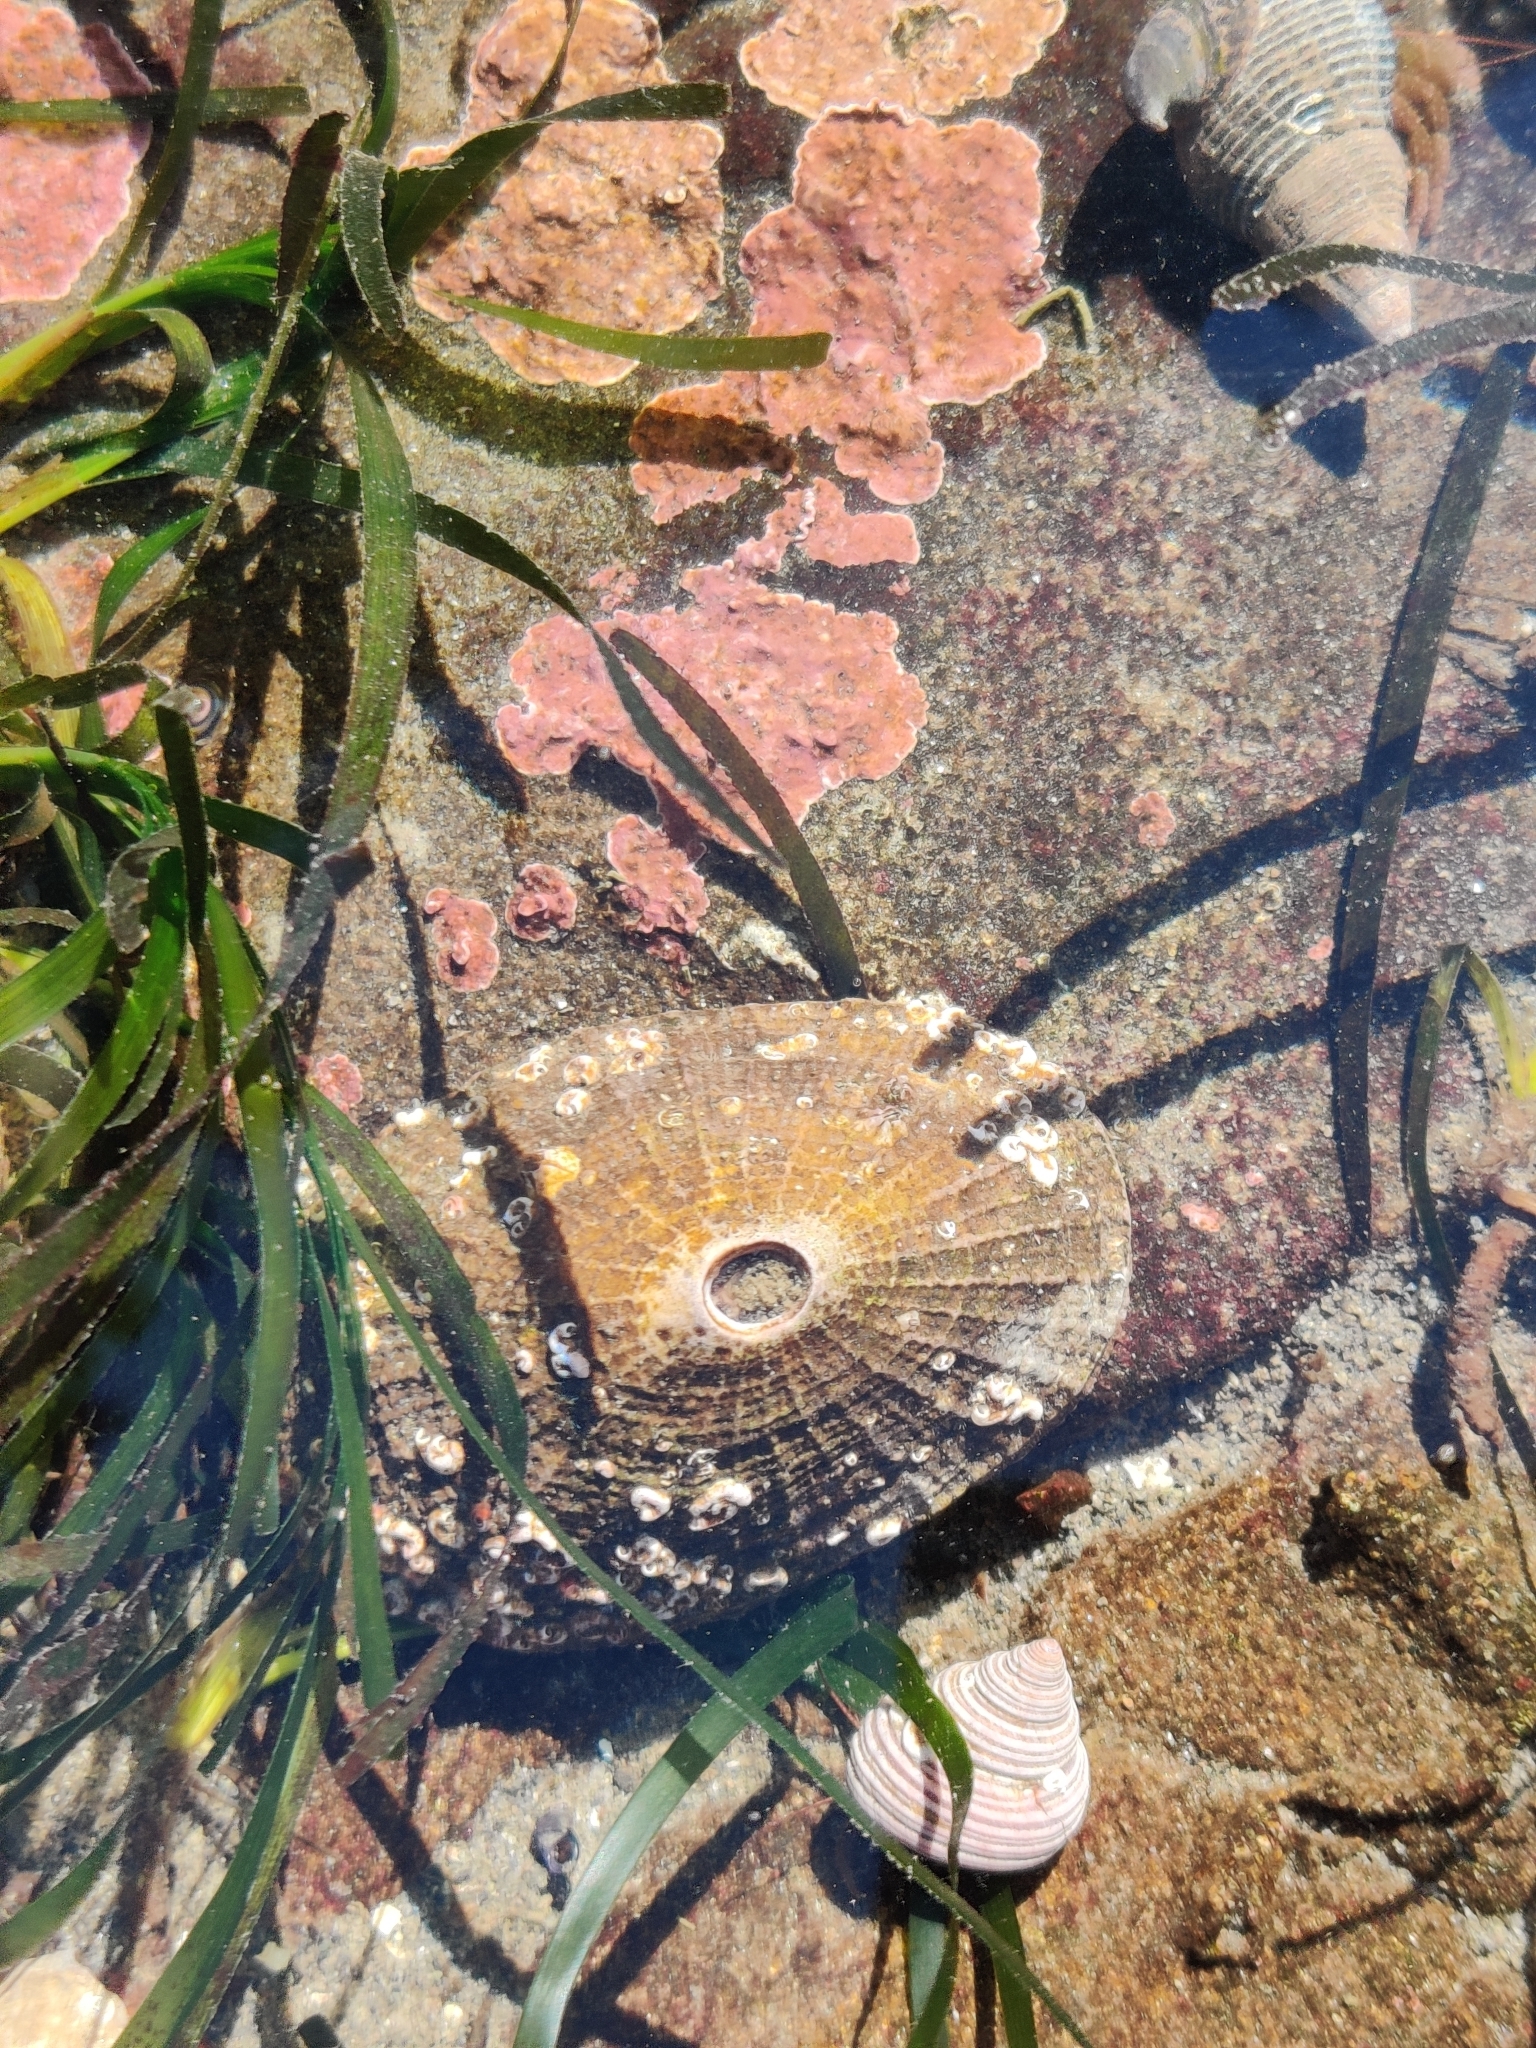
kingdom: Animalia
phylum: Mollusca
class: Gastropoda
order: Lepetellida
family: Fissurellidae
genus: Diodora
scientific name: Diodora aspera
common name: Rough keyhole limpet
